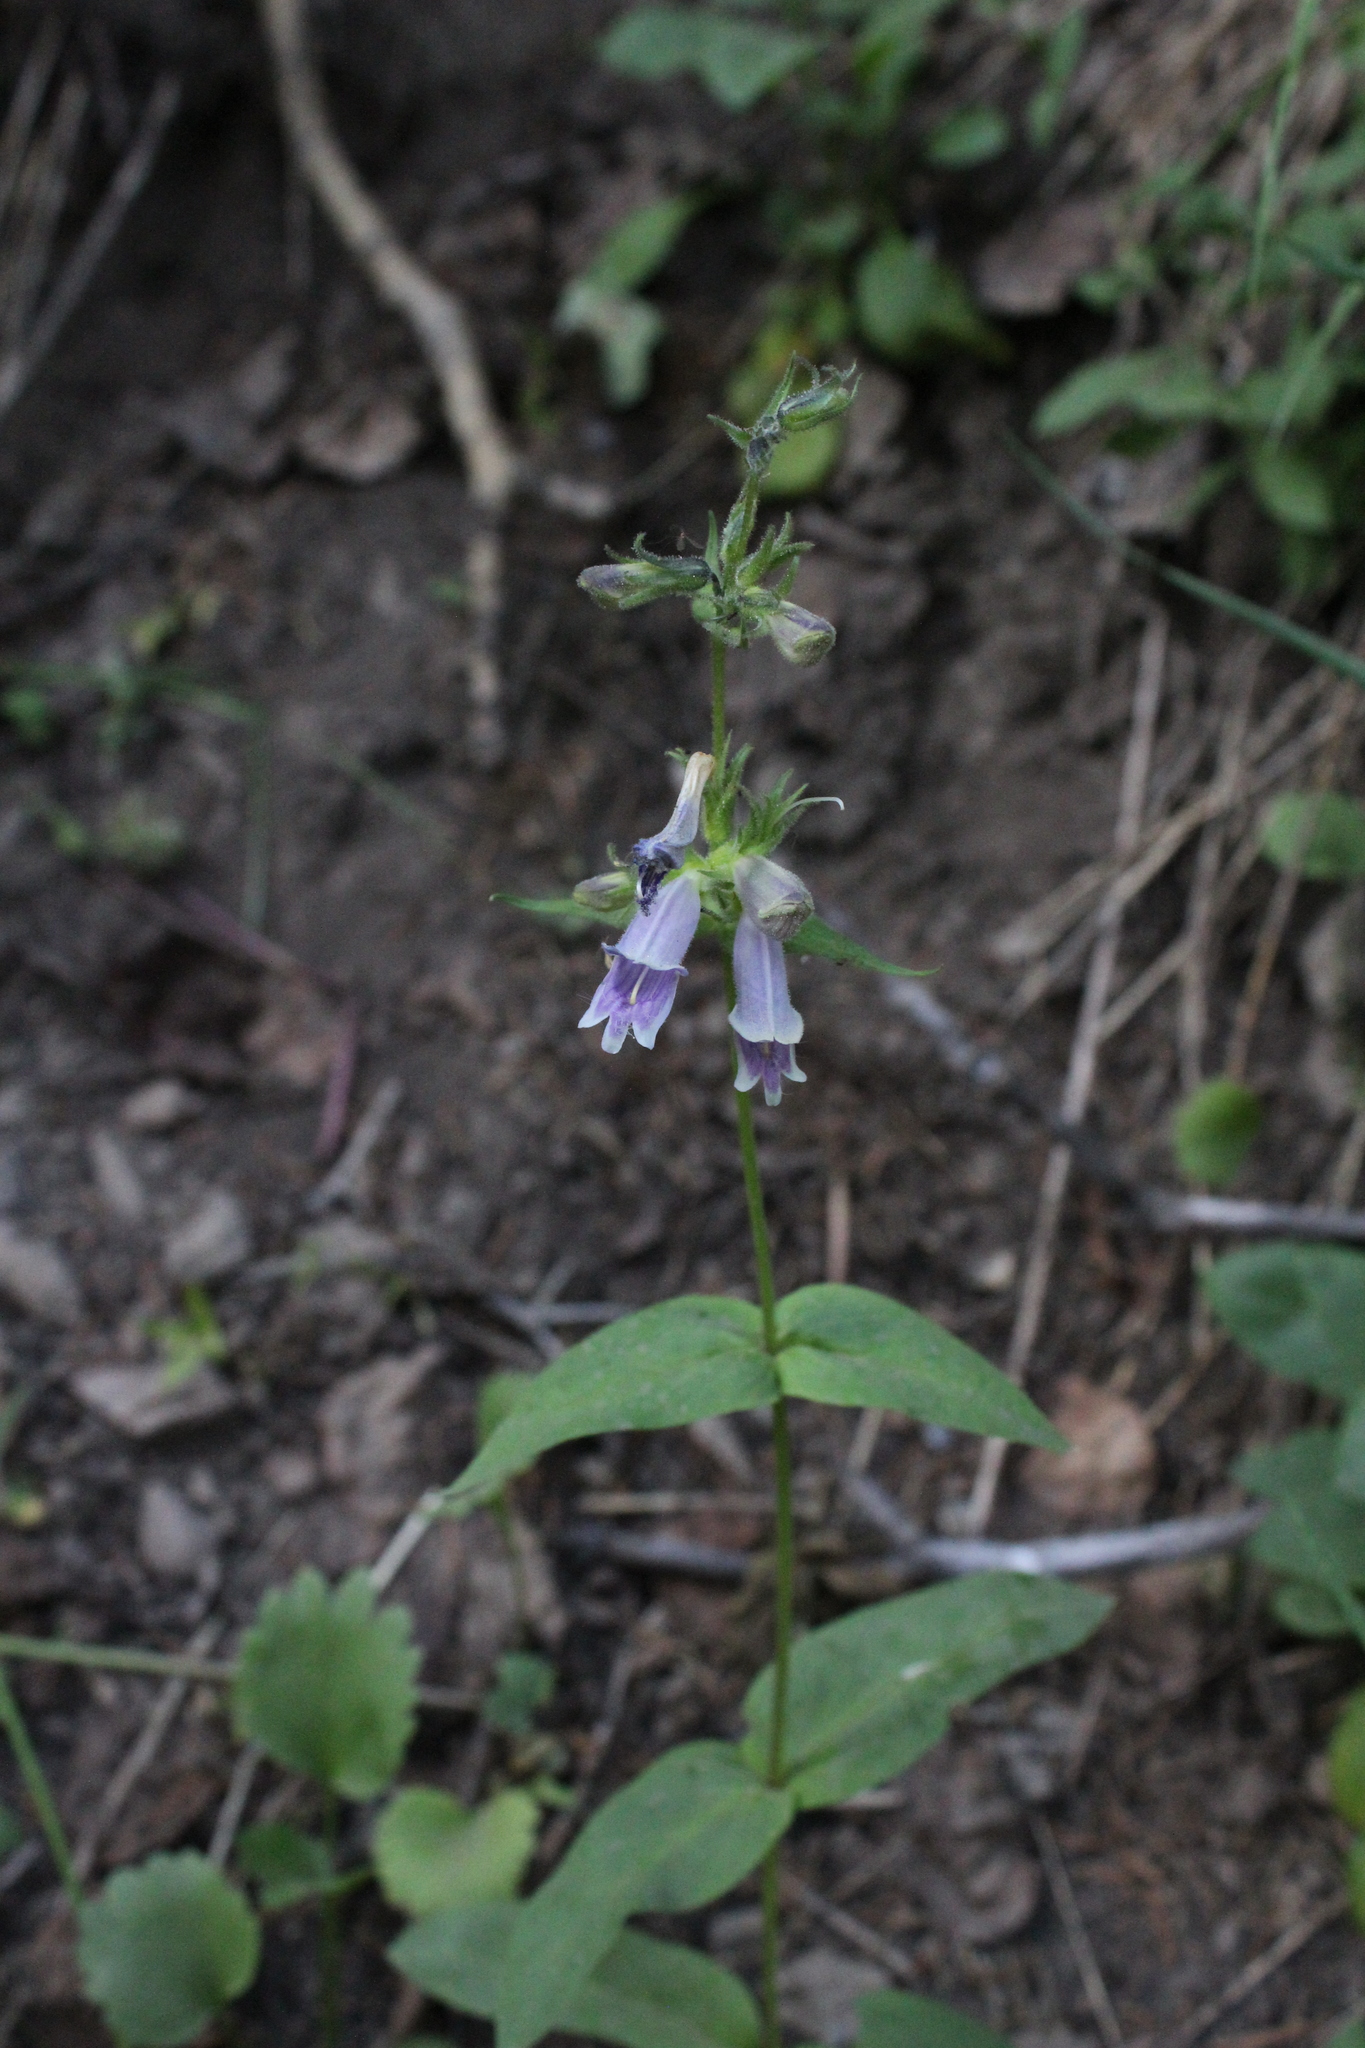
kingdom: Plantae
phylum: Tracheophyta
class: Magnoliopsida
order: Lamiales
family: Plantaginaceae
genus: Penstemon
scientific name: Penstemon whippleanus
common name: Whipple's penstemon
